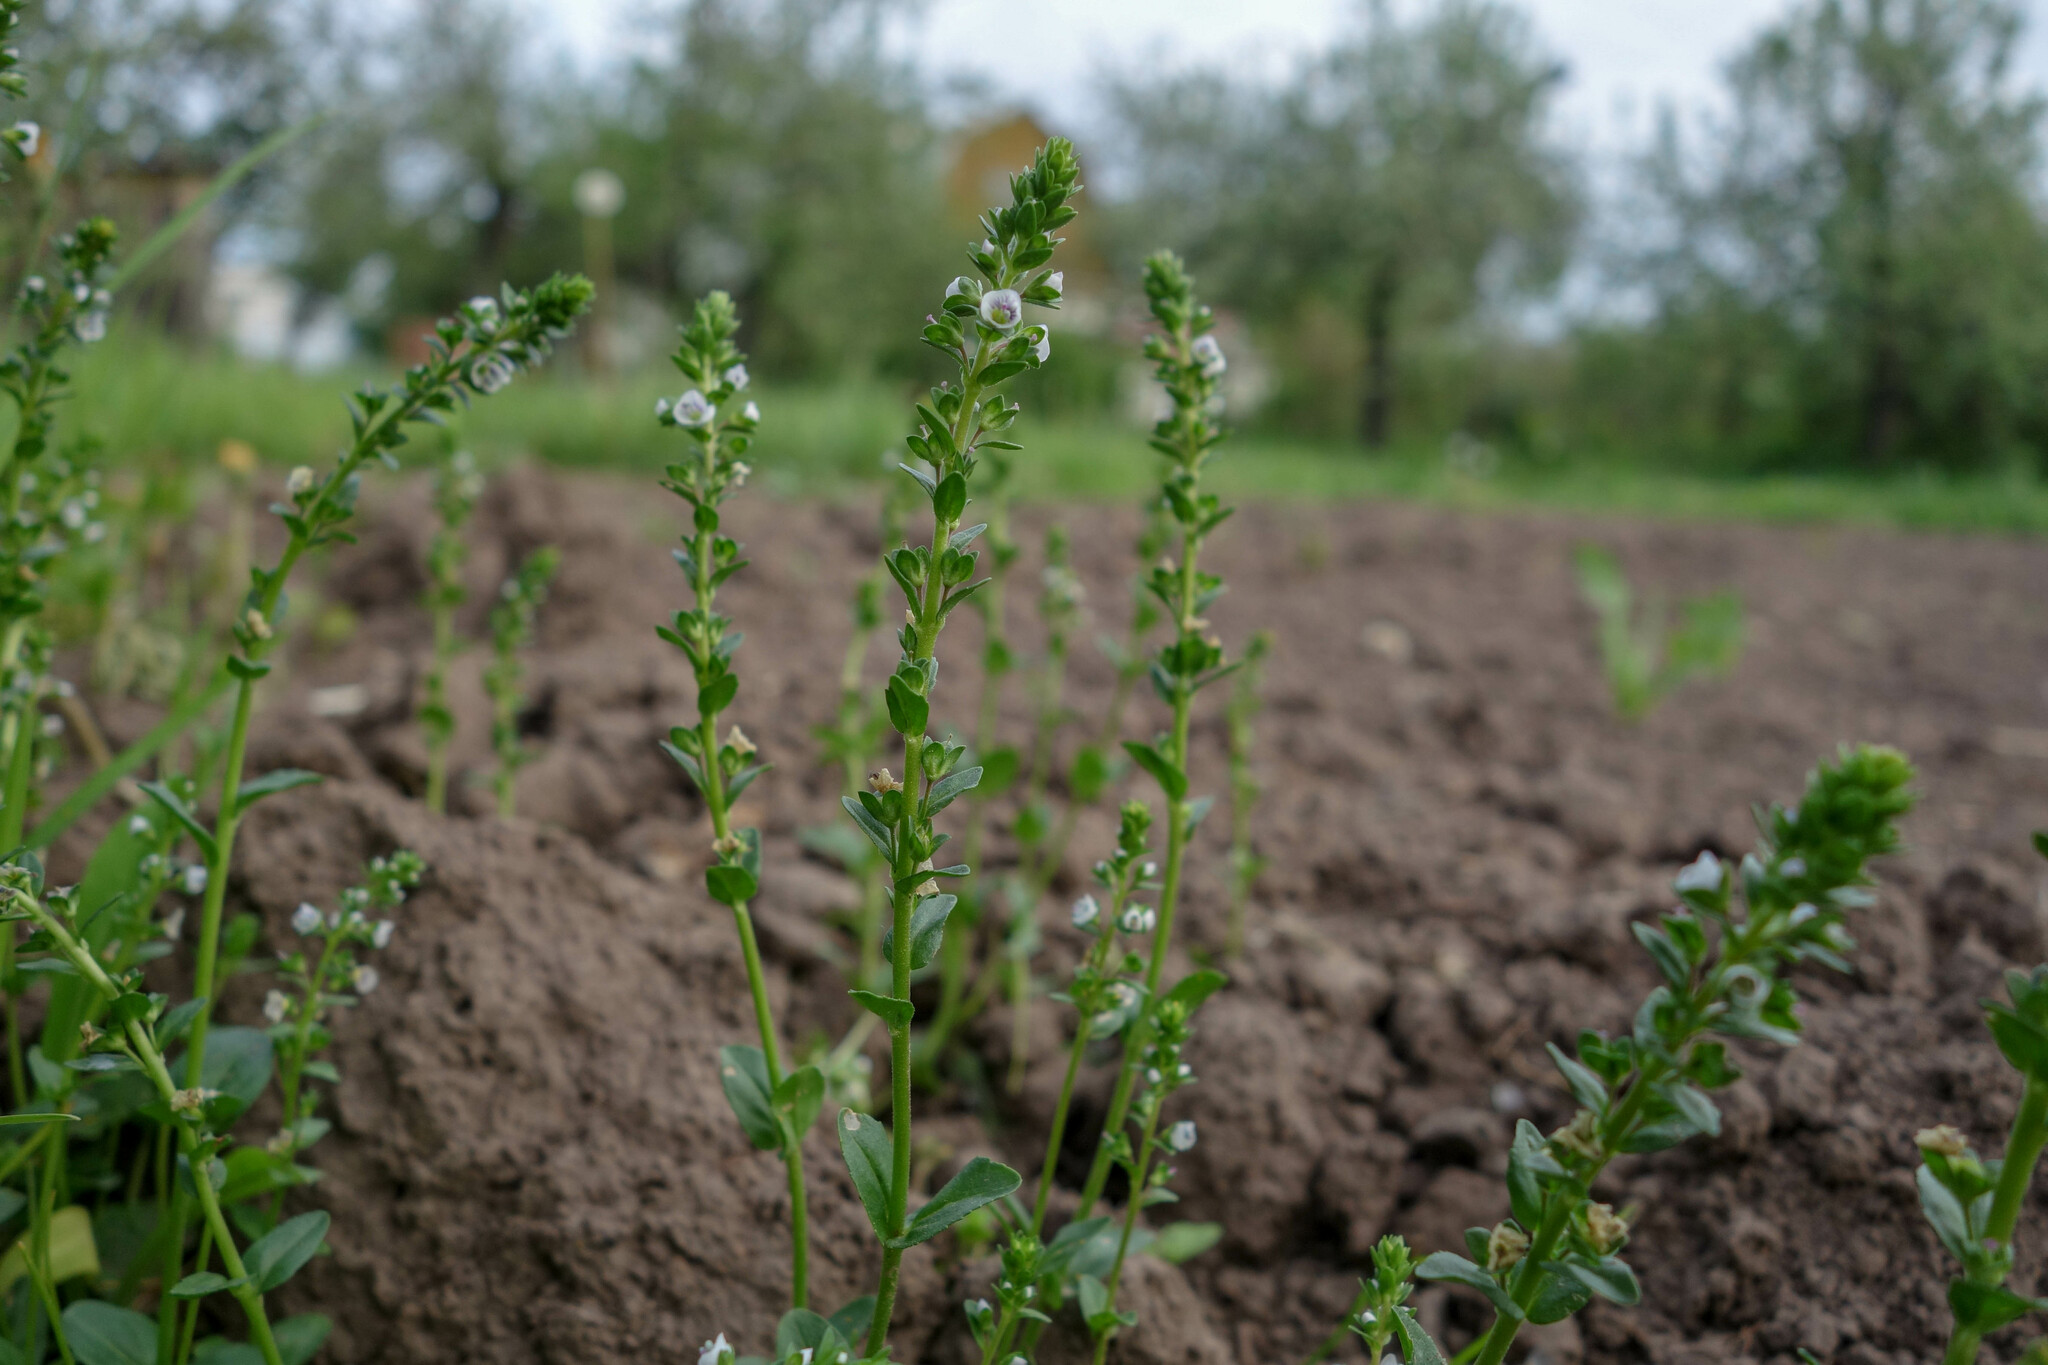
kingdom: Plantae
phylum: Tracheophyta
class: Magnoliopsida
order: Lamiales
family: Plantaginaceae
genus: Veronica
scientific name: Veronica serpyllifolia
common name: Thyme-leaved speedwell
